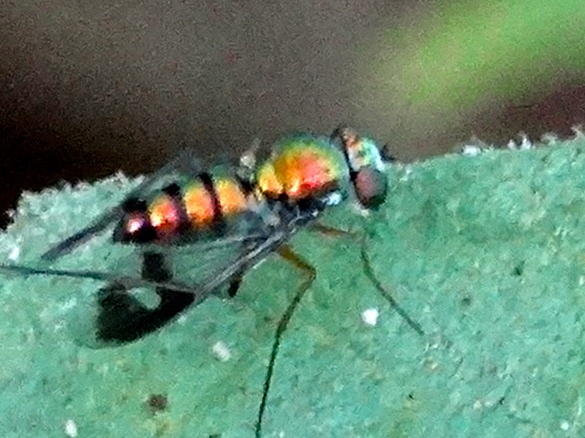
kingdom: Animalia
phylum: Arthropoda
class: Insecta
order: Diptera
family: Dolichopodidae
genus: Condylostylus
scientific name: Condylostylus
